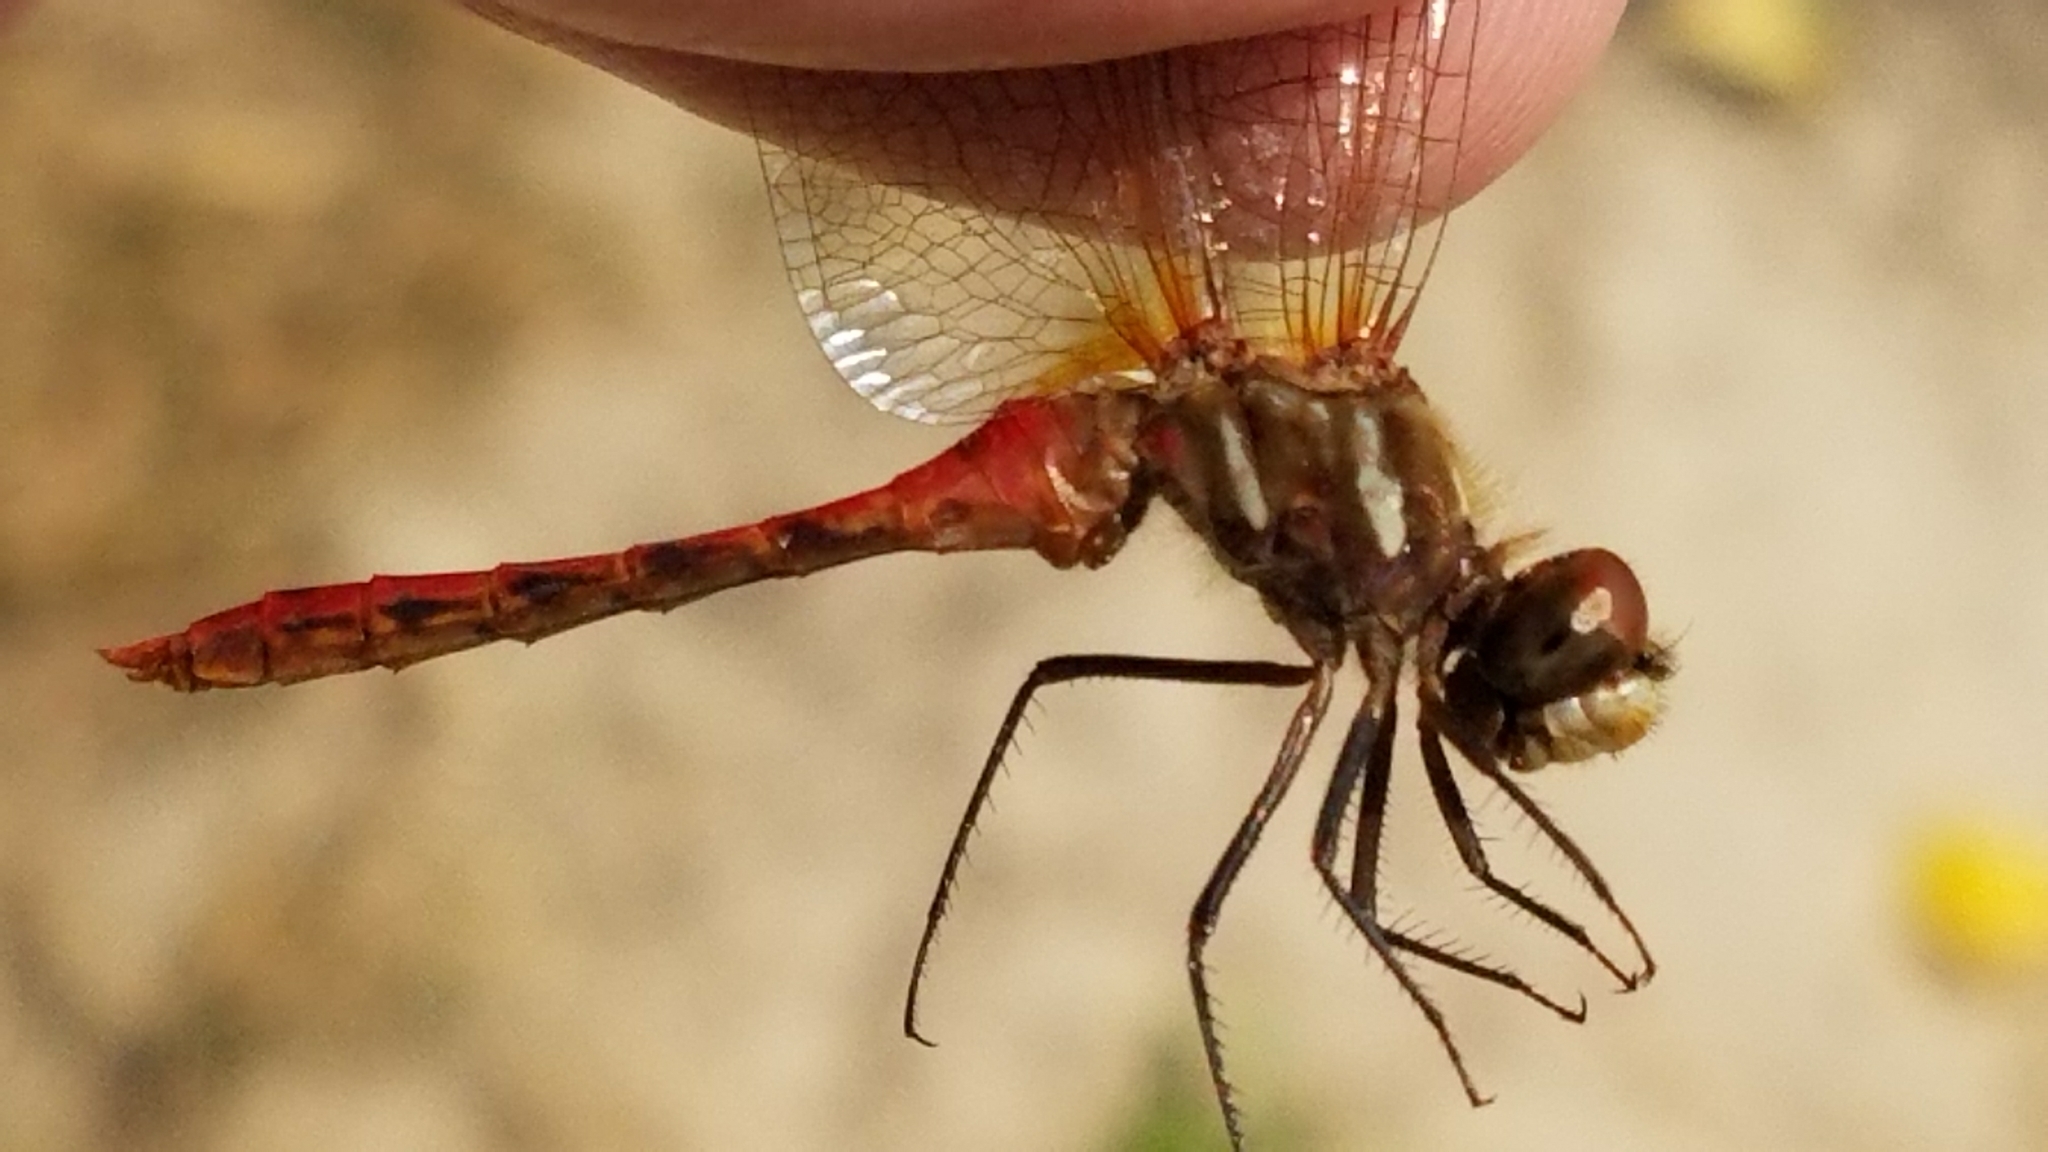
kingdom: Animalia
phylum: Arthropoda
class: Insecta
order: Odonata
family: Libellulidae
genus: Sympetrum
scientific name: Sympetrum pallipes
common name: Striped meadowhawk
